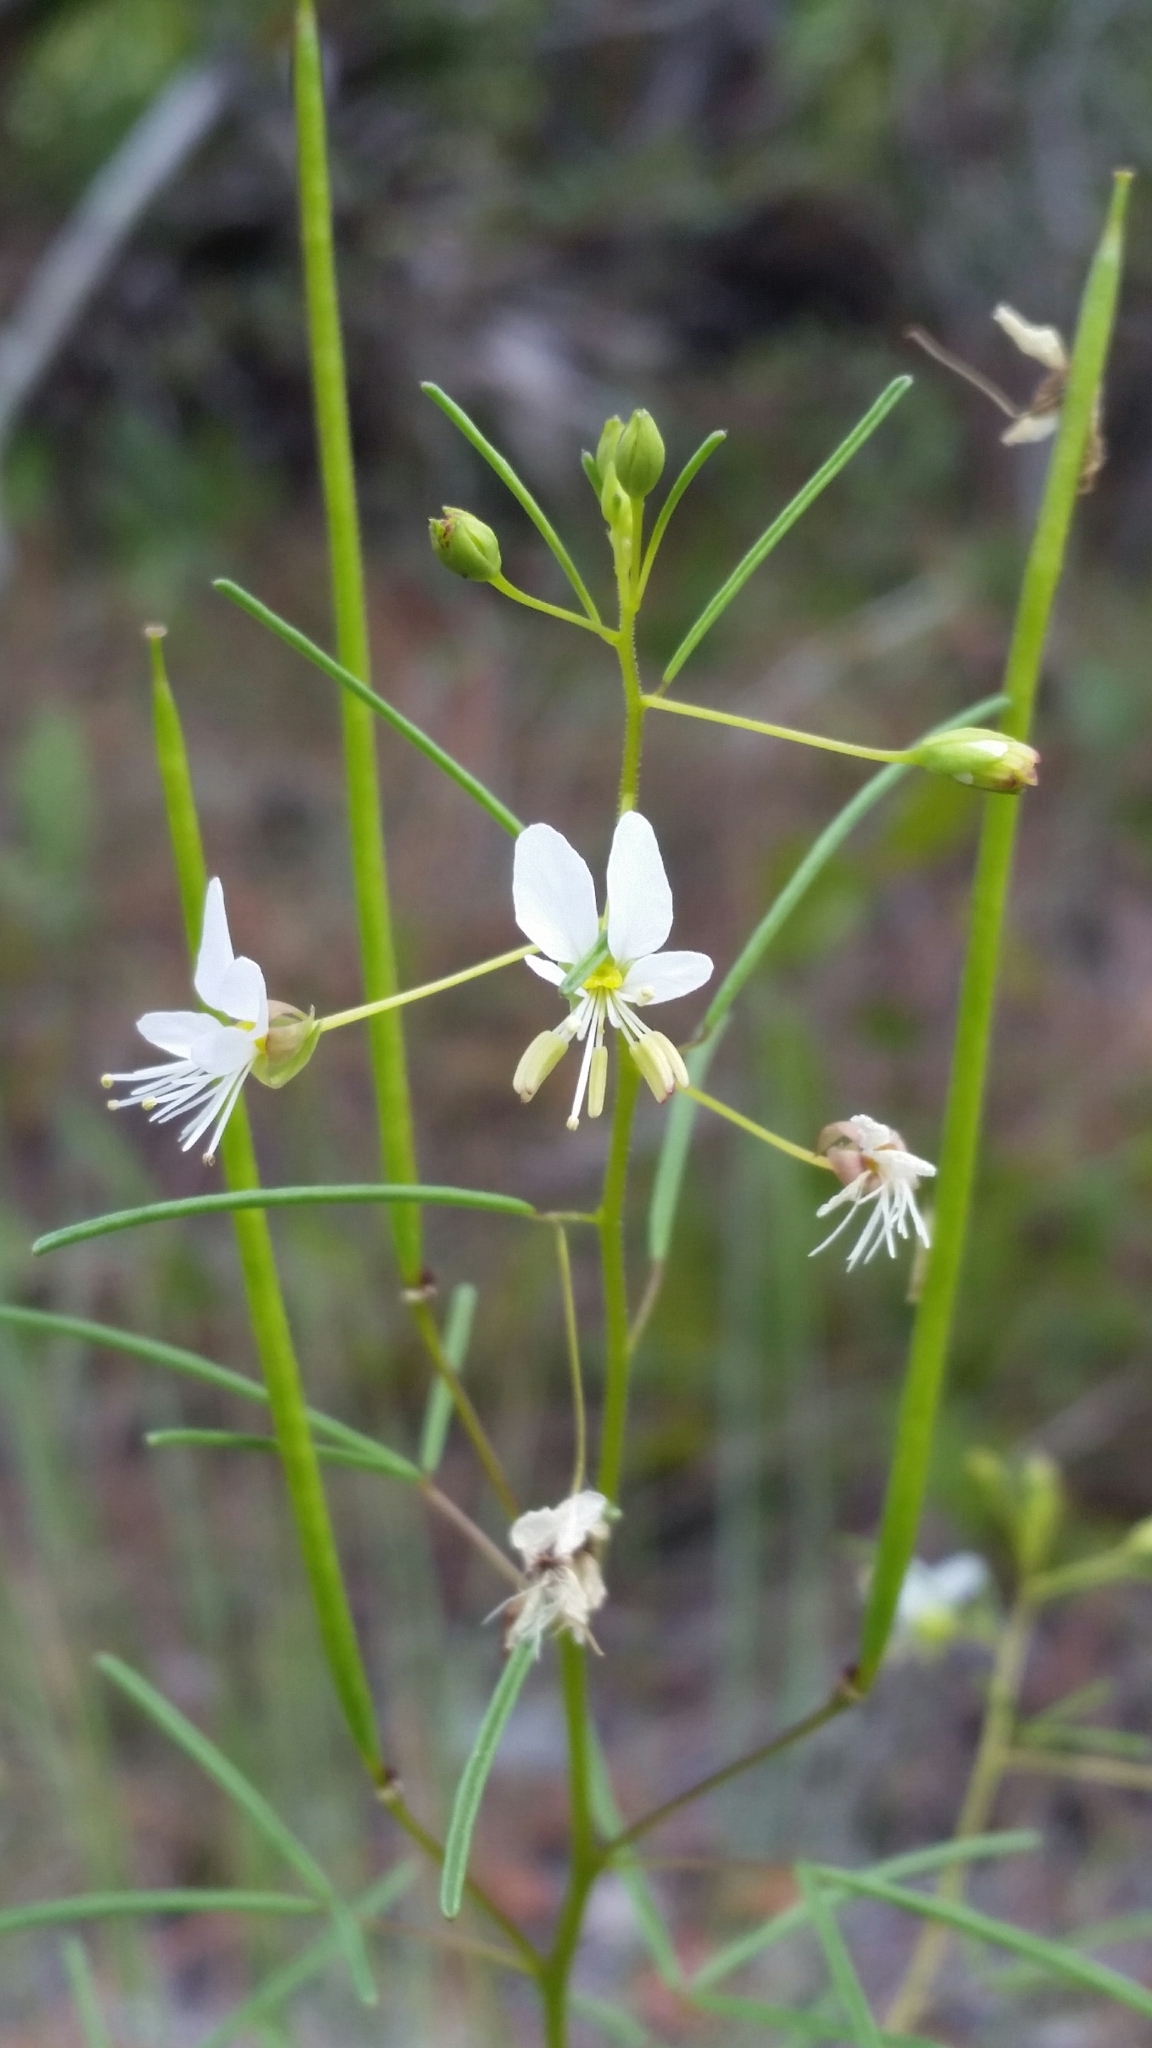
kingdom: Plantae
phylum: Tracheophyta
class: Magnoliopsida
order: Brassicales
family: Cleomaceae
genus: Polanisia
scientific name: Polanisia tenuifolia
